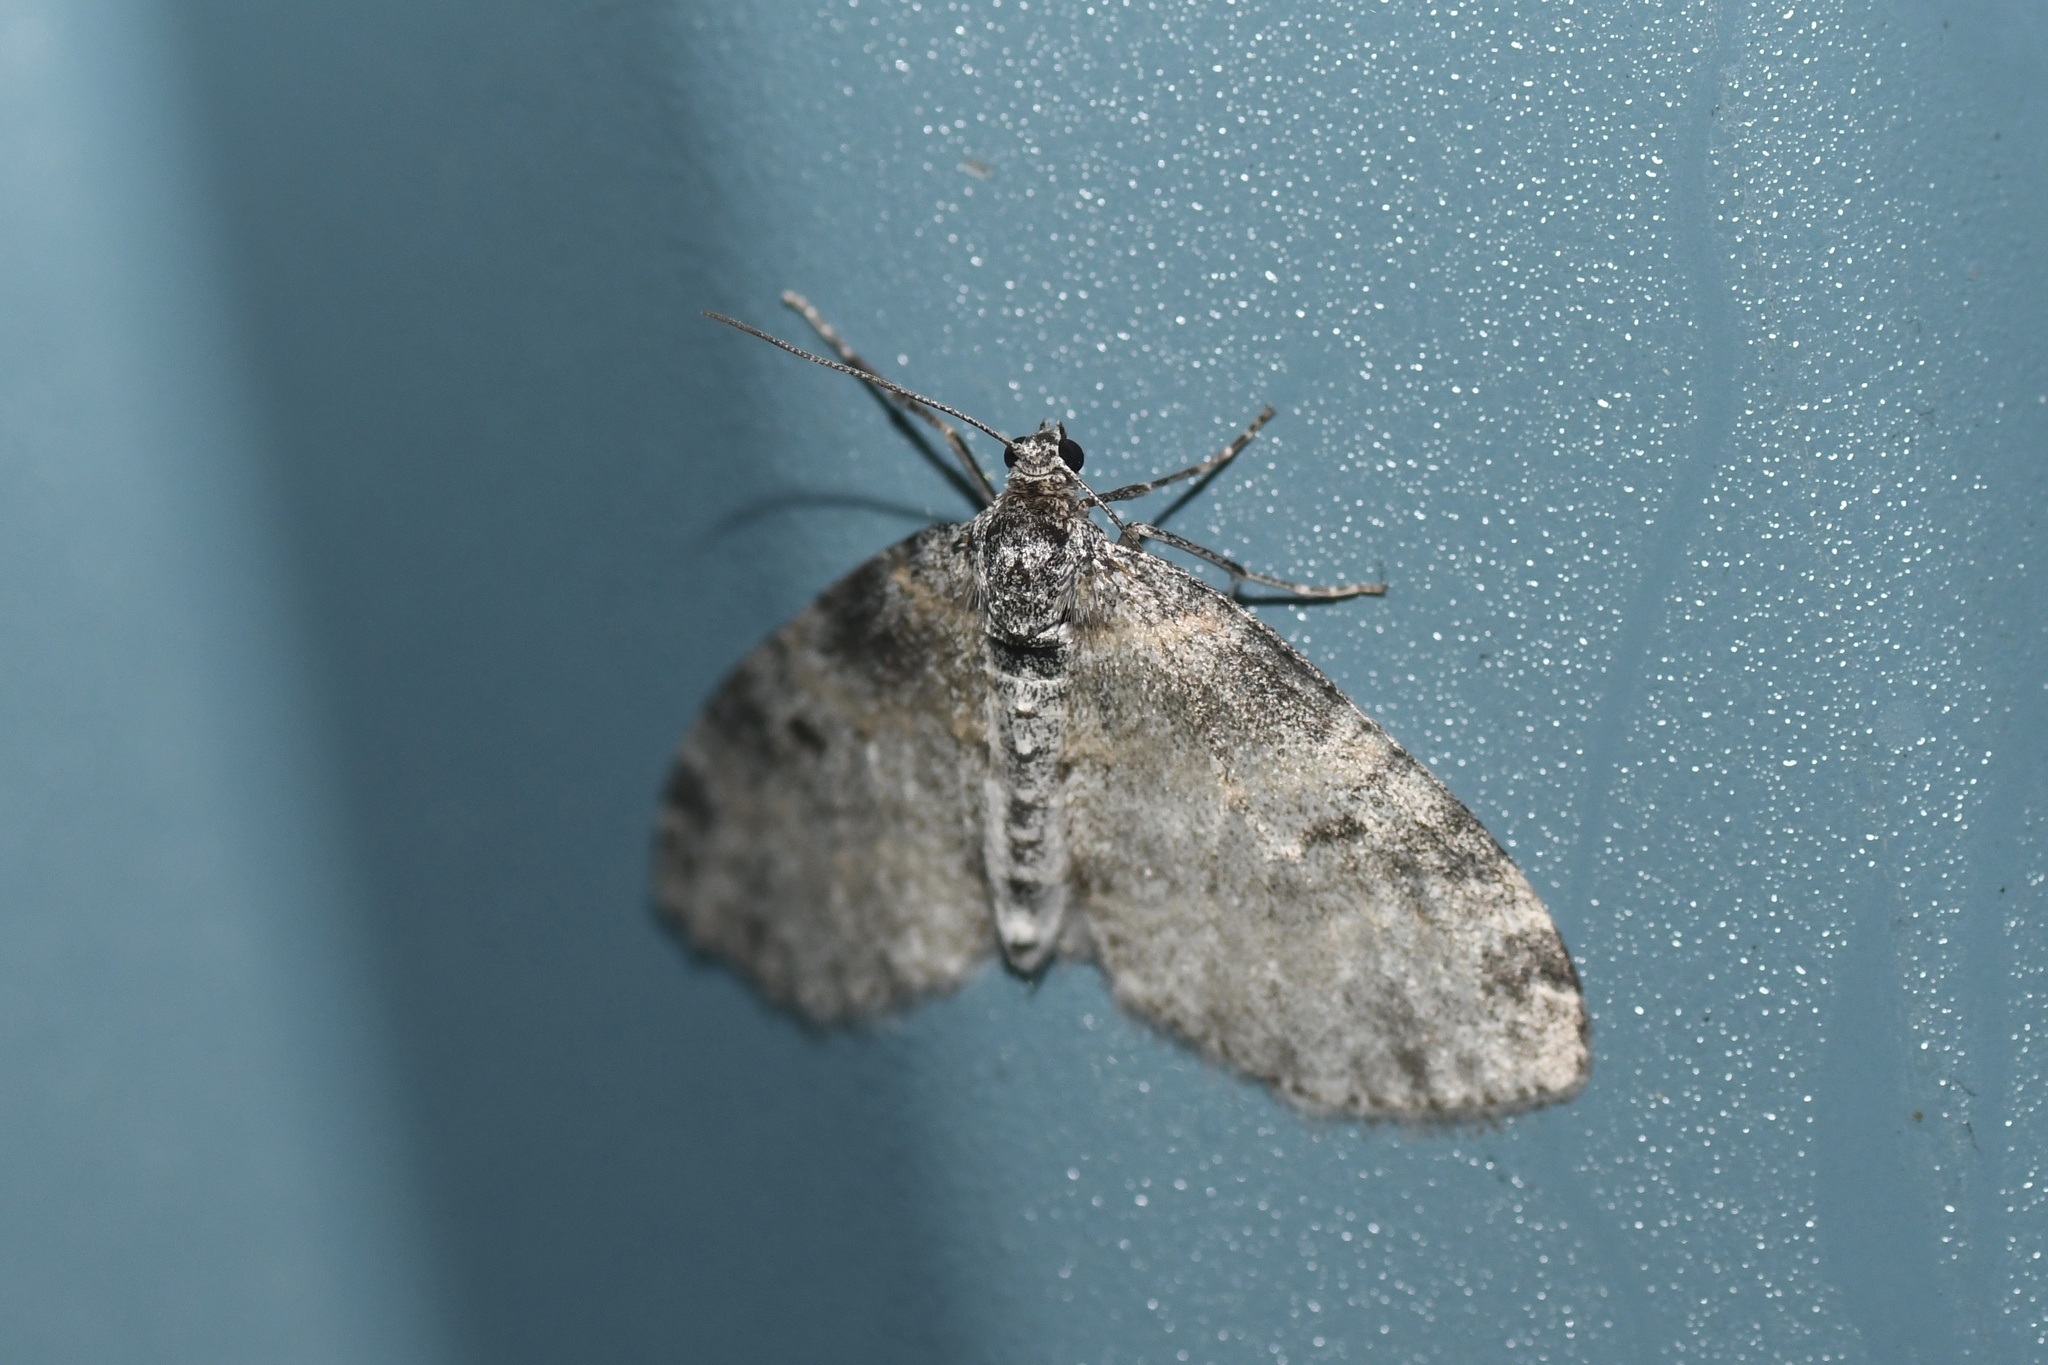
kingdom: Animalia
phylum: Arthropoda
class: Insecta
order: Lepidoptera
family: Geometridae
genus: Lobophora
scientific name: Lobophora nivigerata
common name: Powdered bigwing
